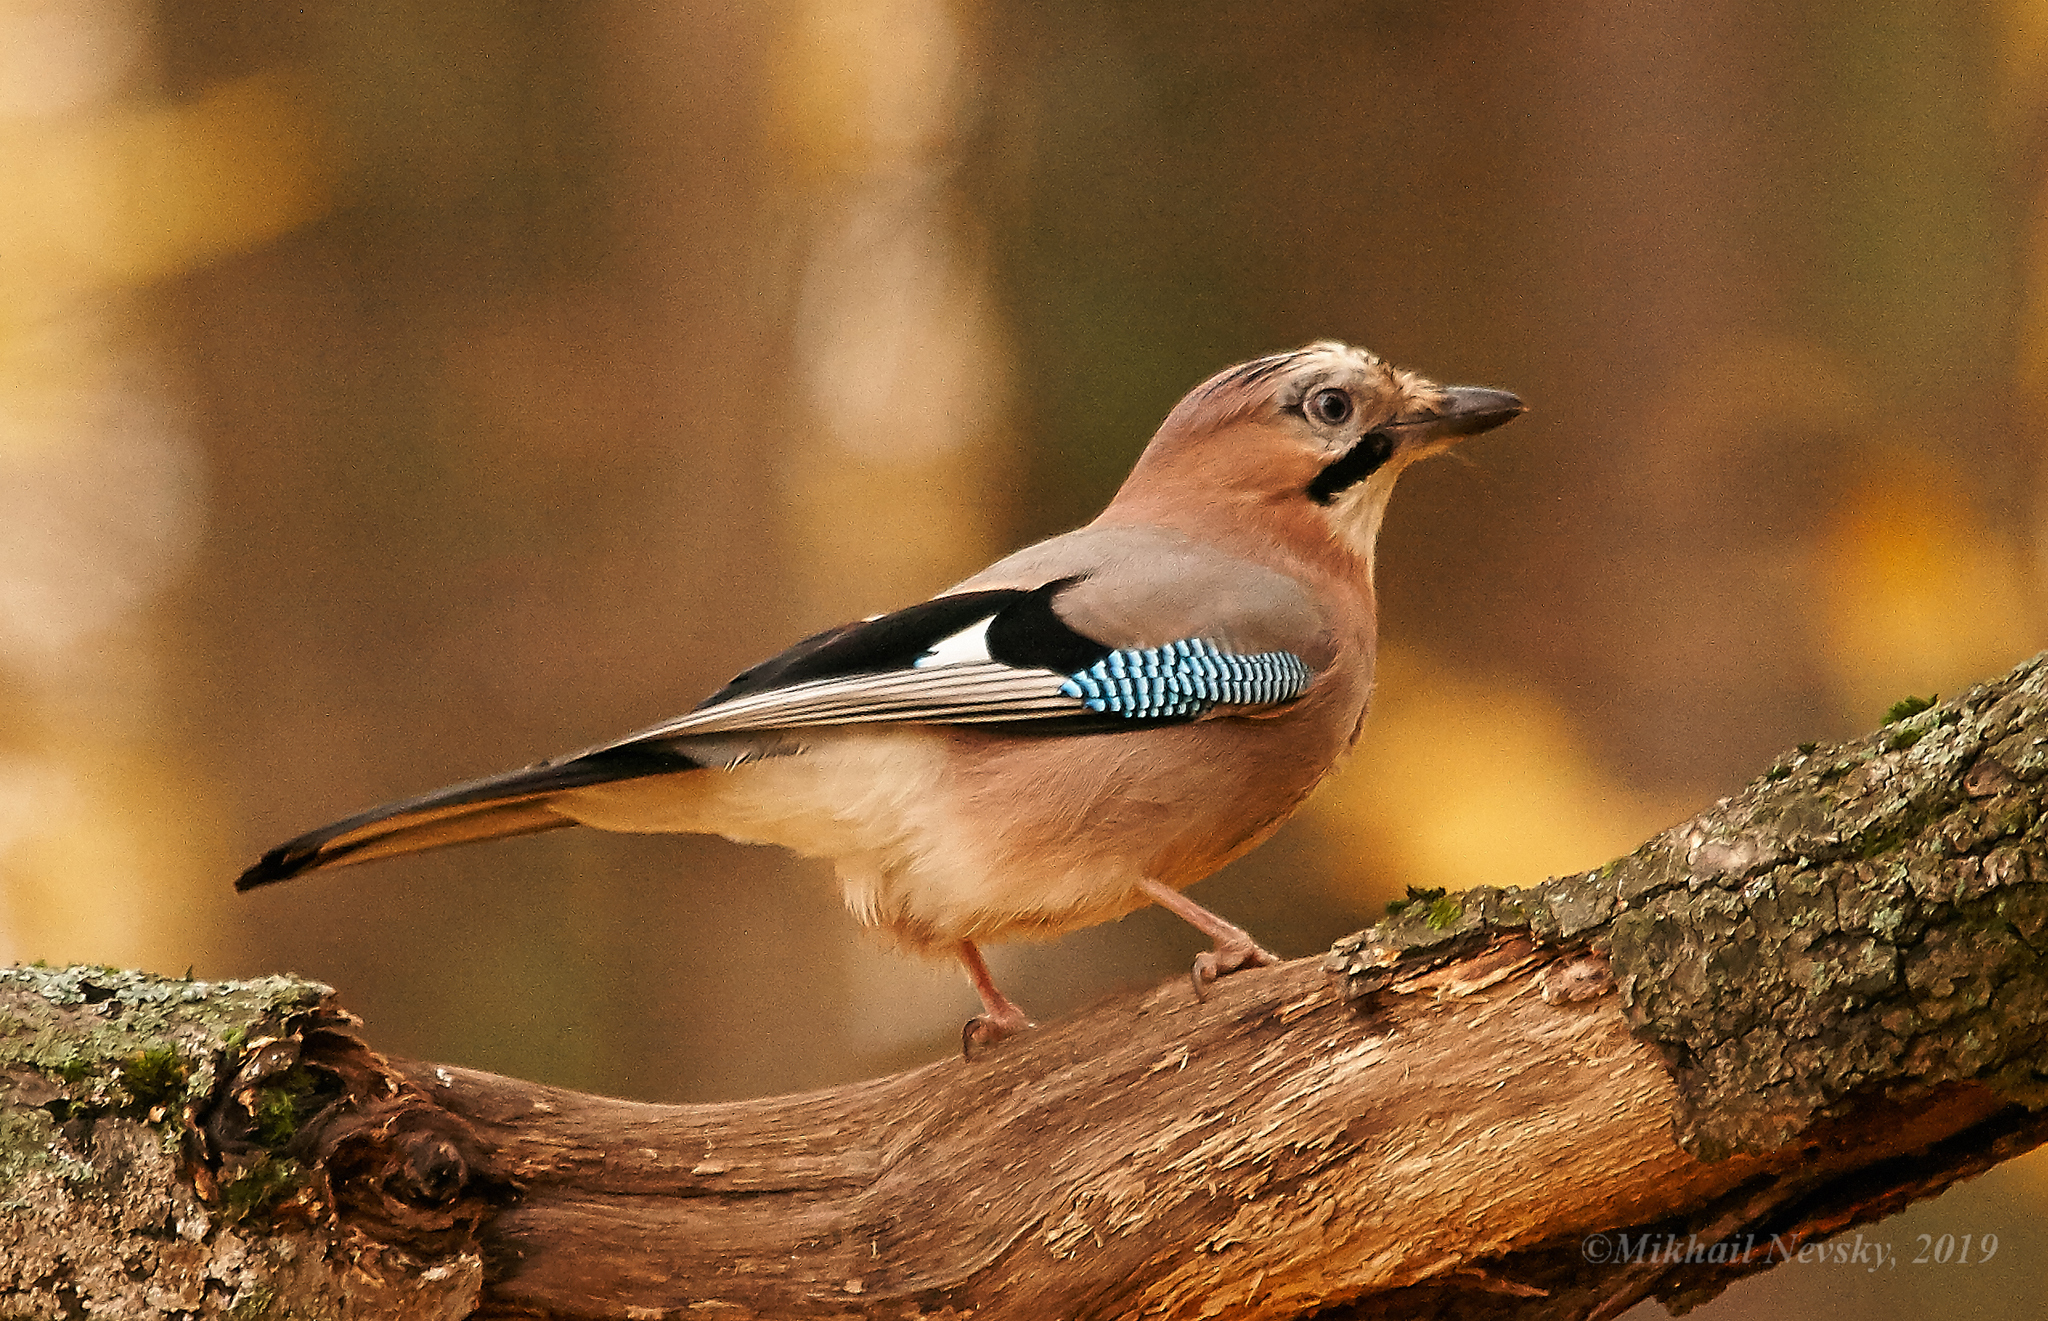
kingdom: Animalia
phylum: Chordata
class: Aves
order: Passeriformes
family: Corvidae
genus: Garrulus
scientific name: Garrulus glandarius
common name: Eurasian jay
